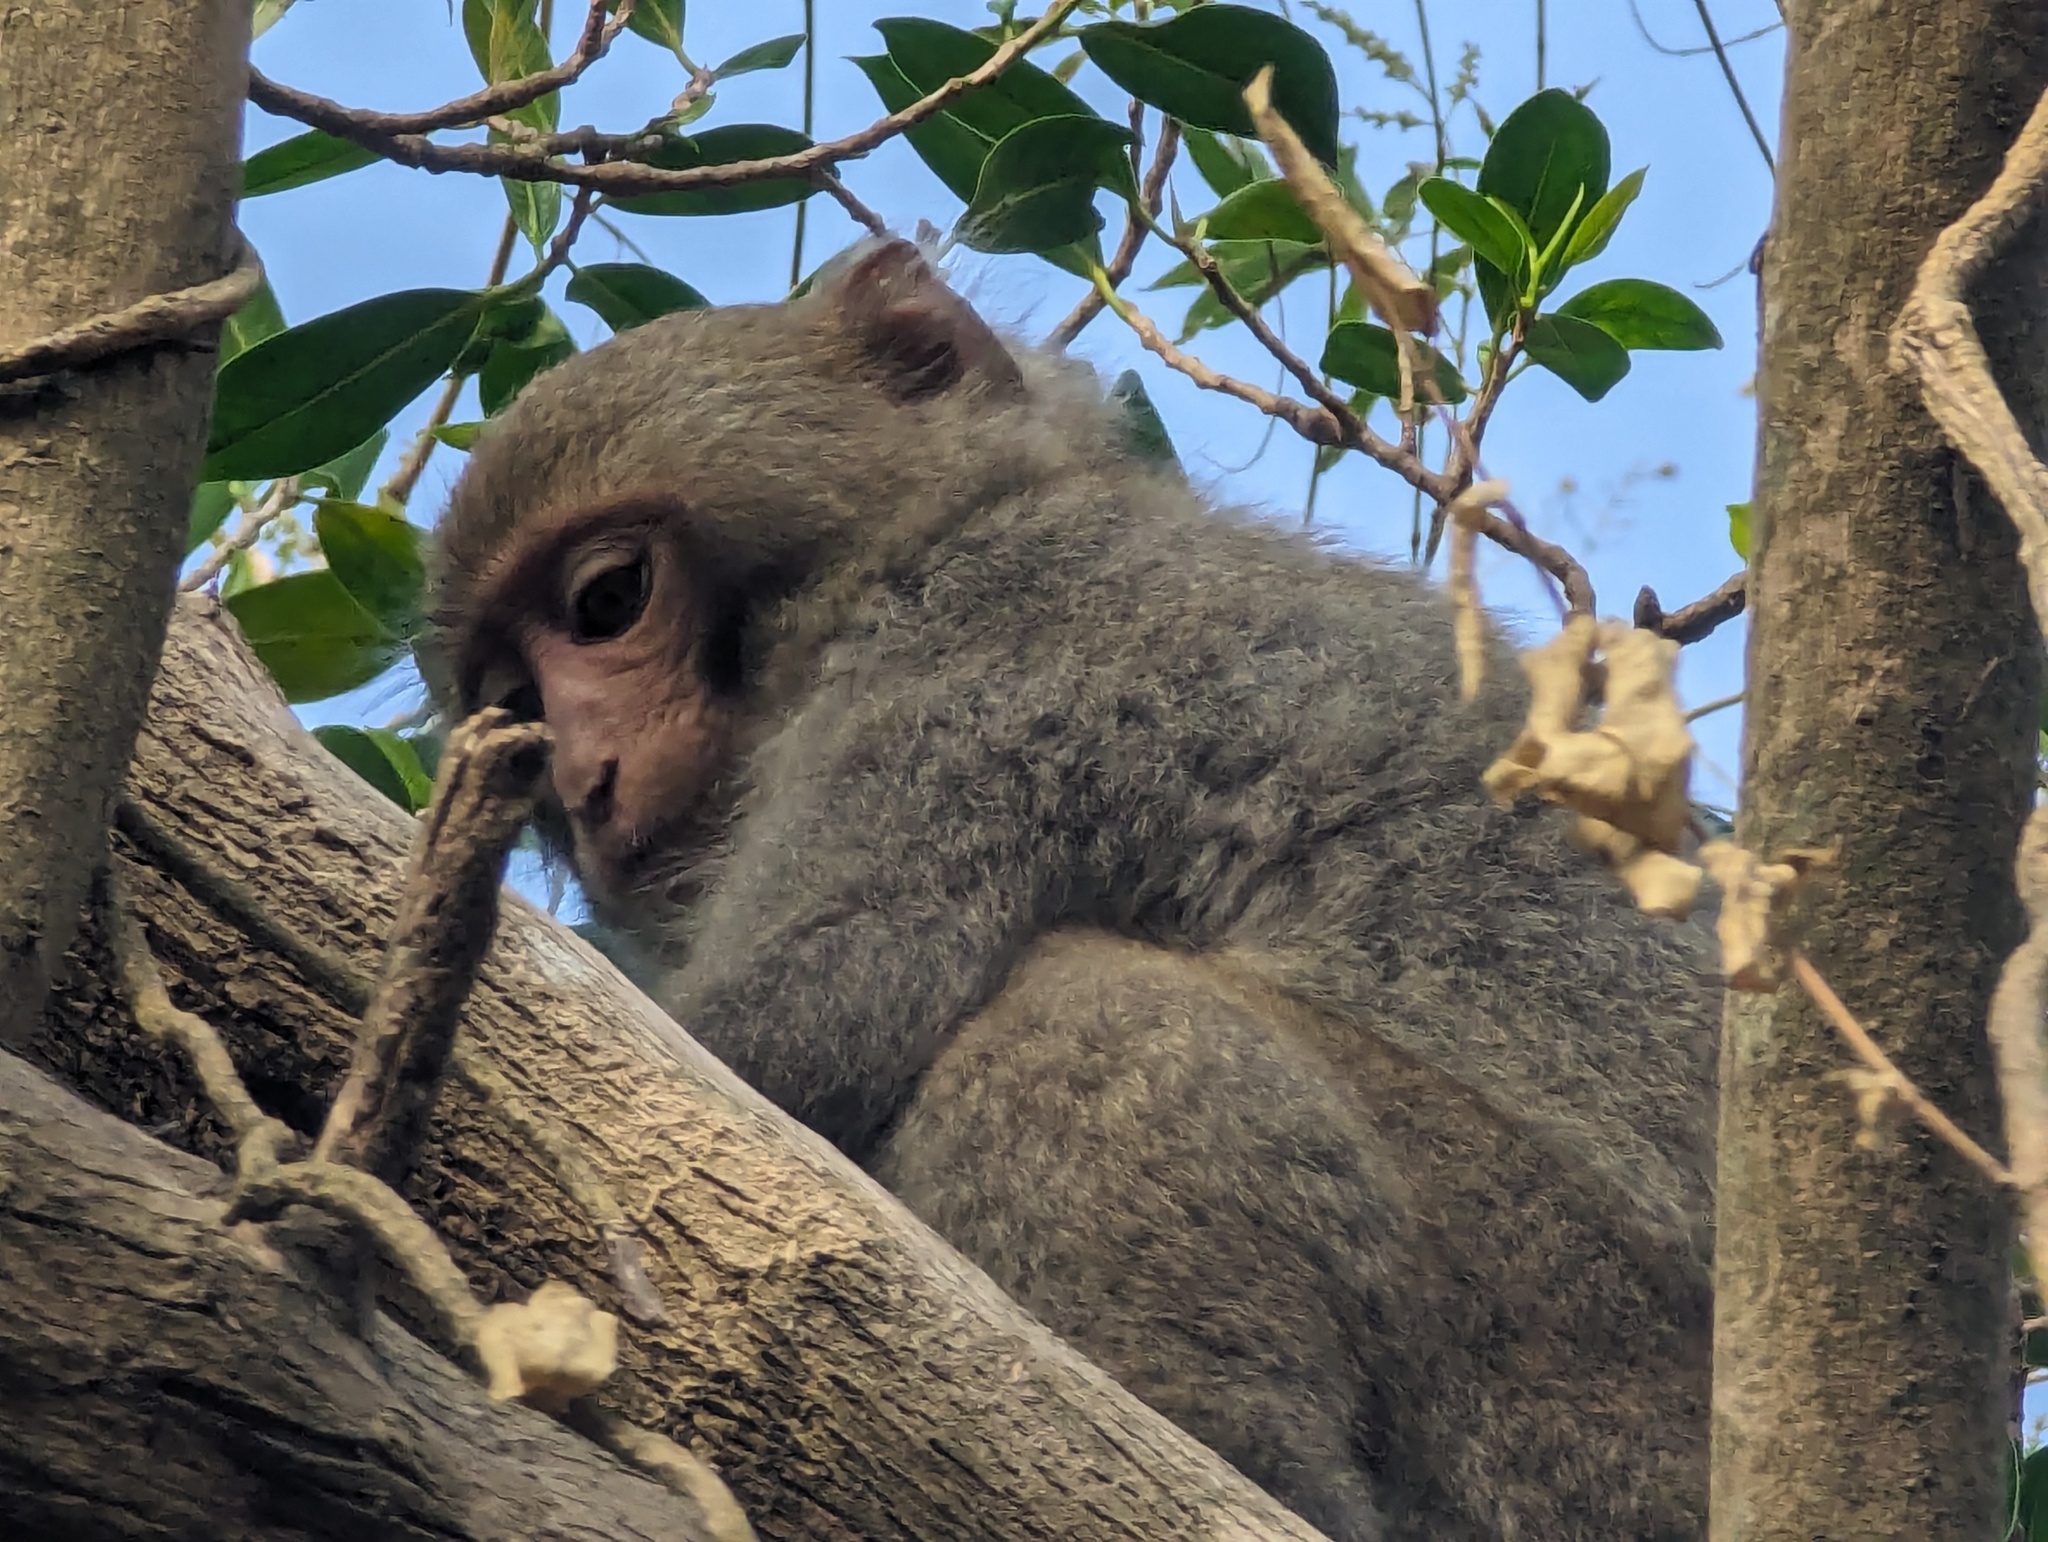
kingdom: Animalia
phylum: Chordata
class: Mammalia
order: Primates
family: Cercopithecidae
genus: Macaca
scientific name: Macaca cyclopis
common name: Formosan rock macaque
